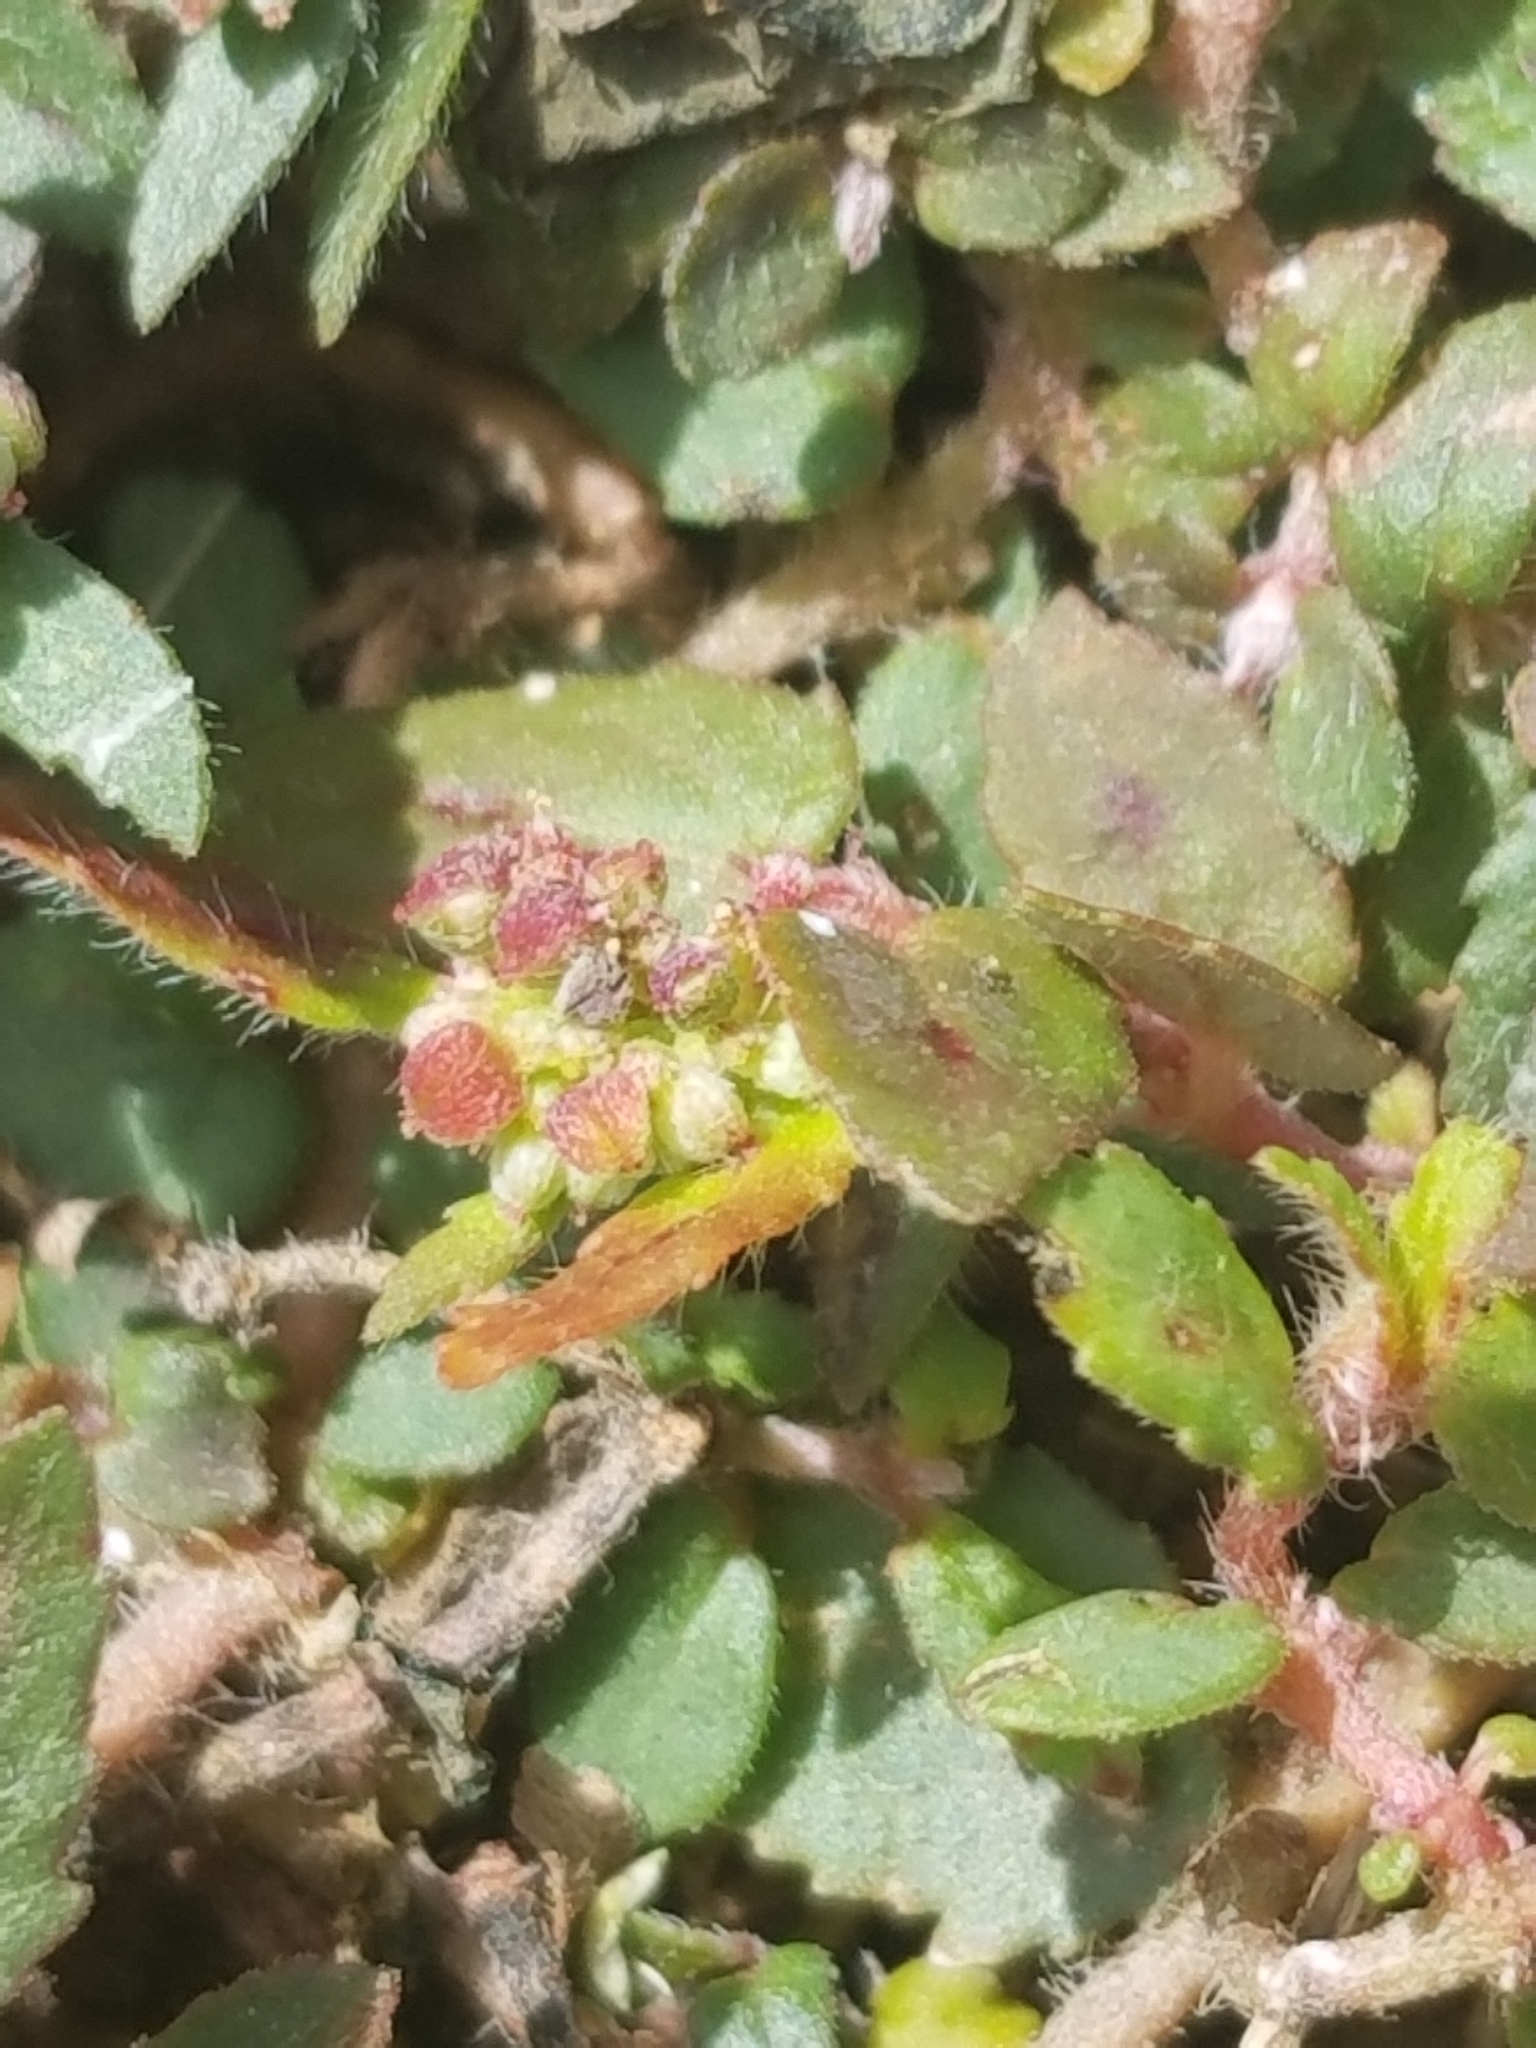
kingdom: Plantae
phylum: Tracheophyta
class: Magnoliopsida
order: Malpighiales
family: Euphorbiaceae
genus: Euphorbia
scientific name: Euphorbia ophthalmica
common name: Florida hammock sandmat
